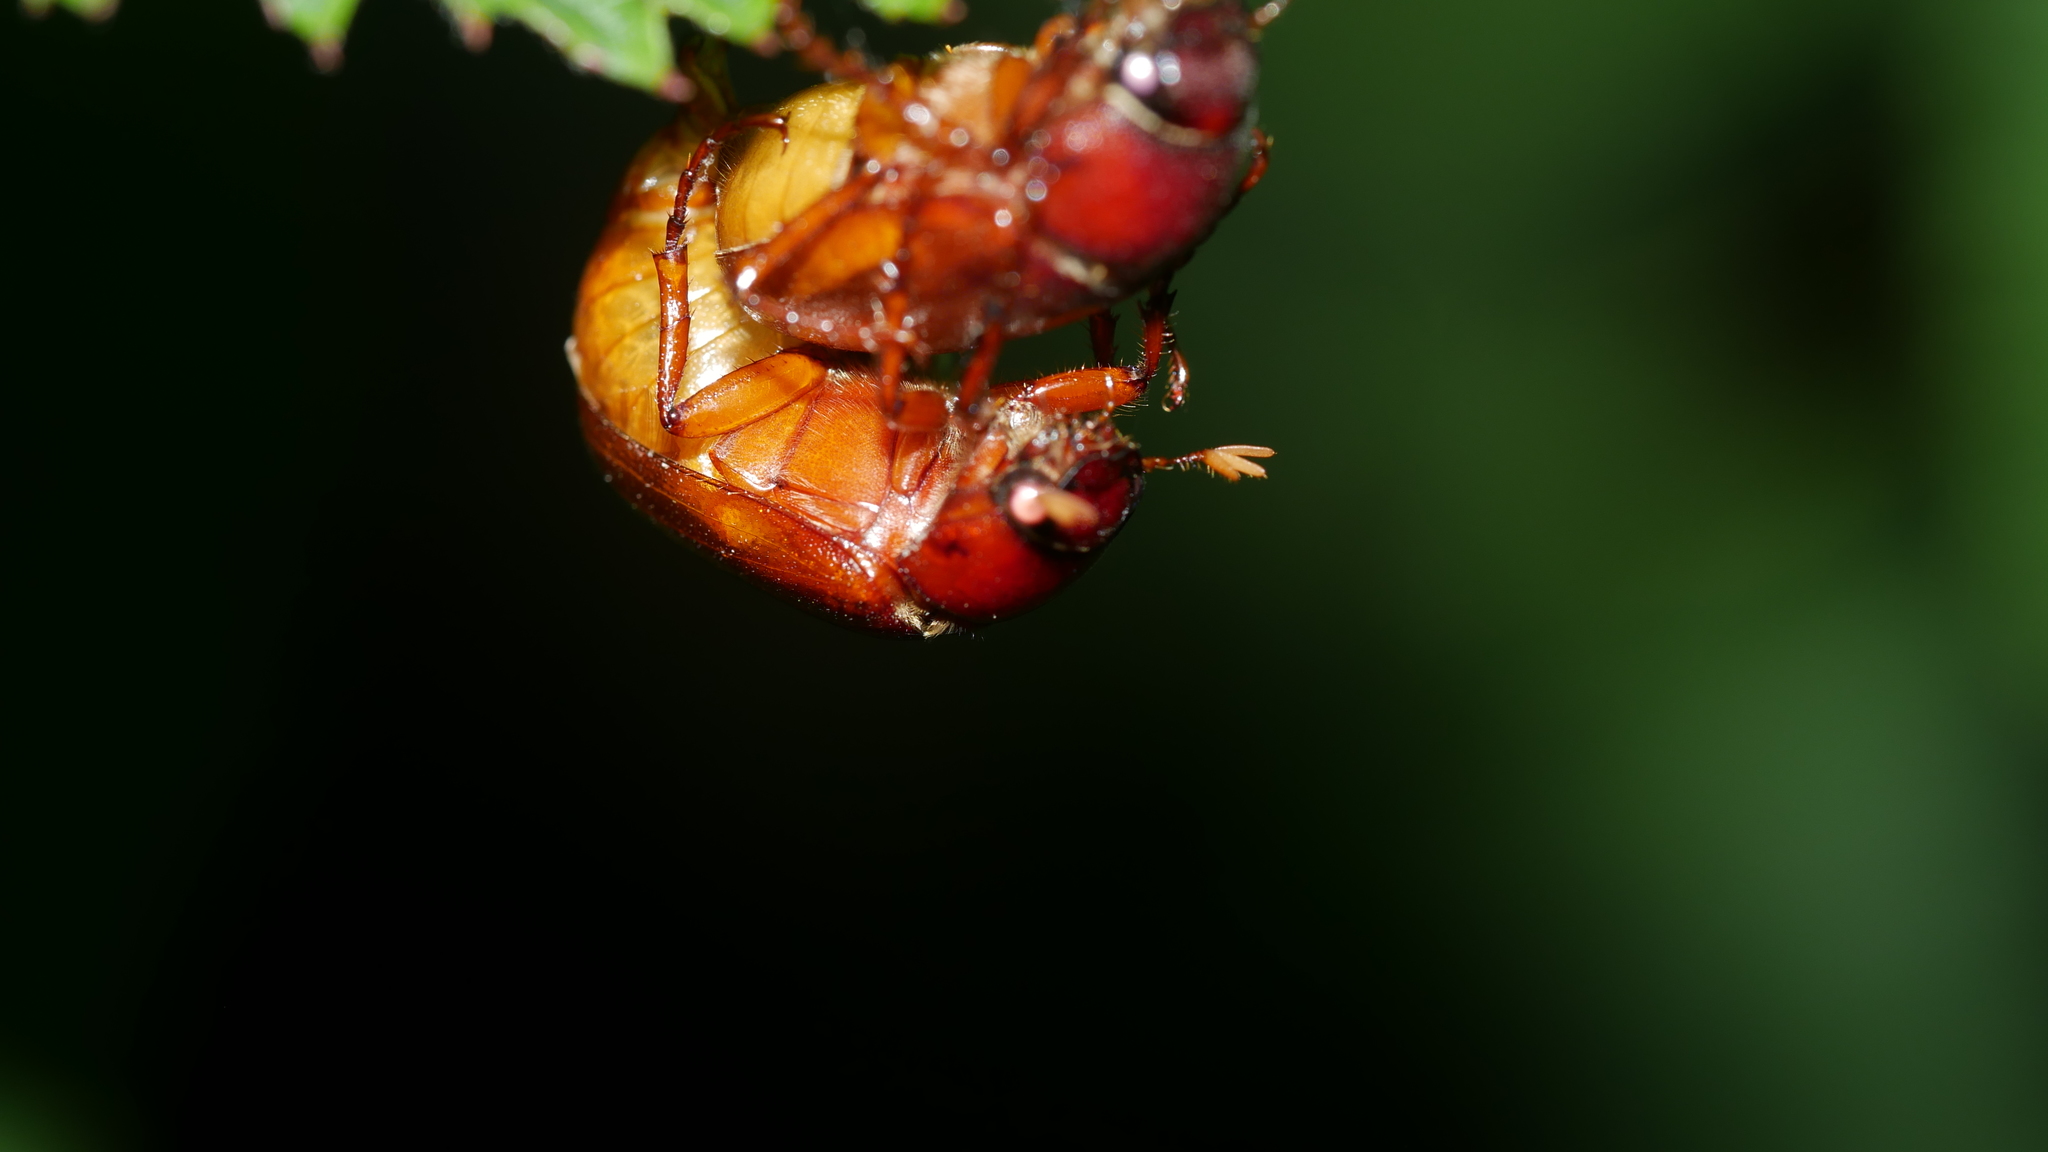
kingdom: Animalia
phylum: Arthropoda
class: Insecta
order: Coleoptera
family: Scarabaeidae
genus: Phyllophaga
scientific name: Phyllophaga
